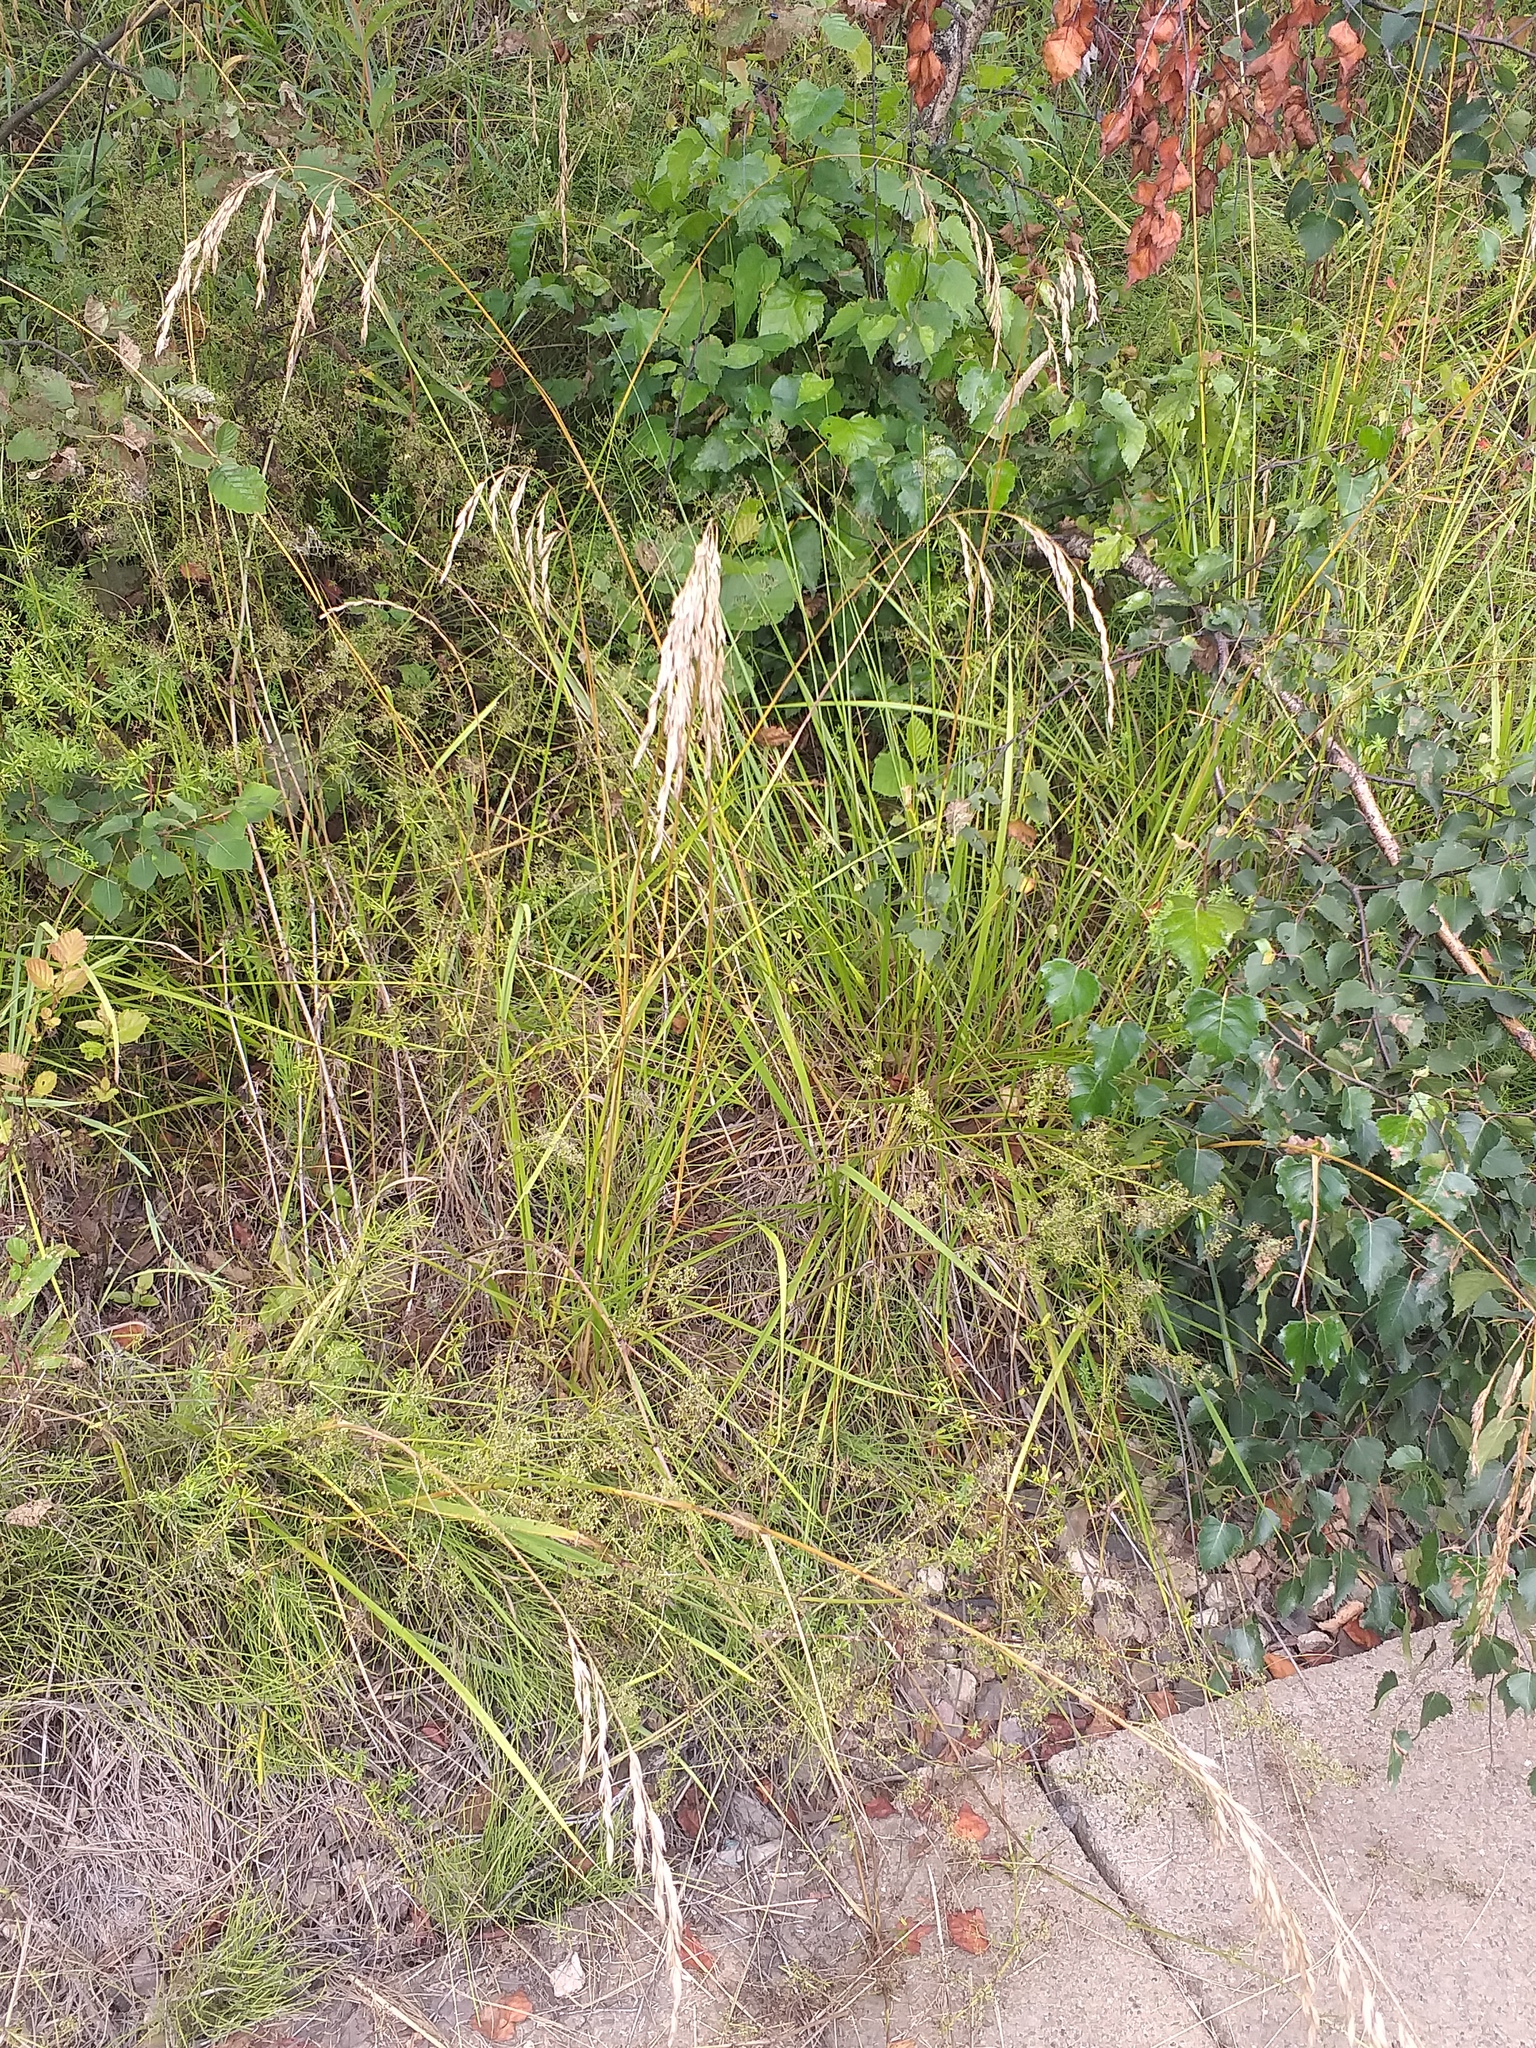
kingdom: Plantae
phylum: Tracheophyta
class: Liliopsida
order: Poales
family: Poaceae
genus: Lolium
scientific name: Lolium arundinaceum
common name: Reed fescue
